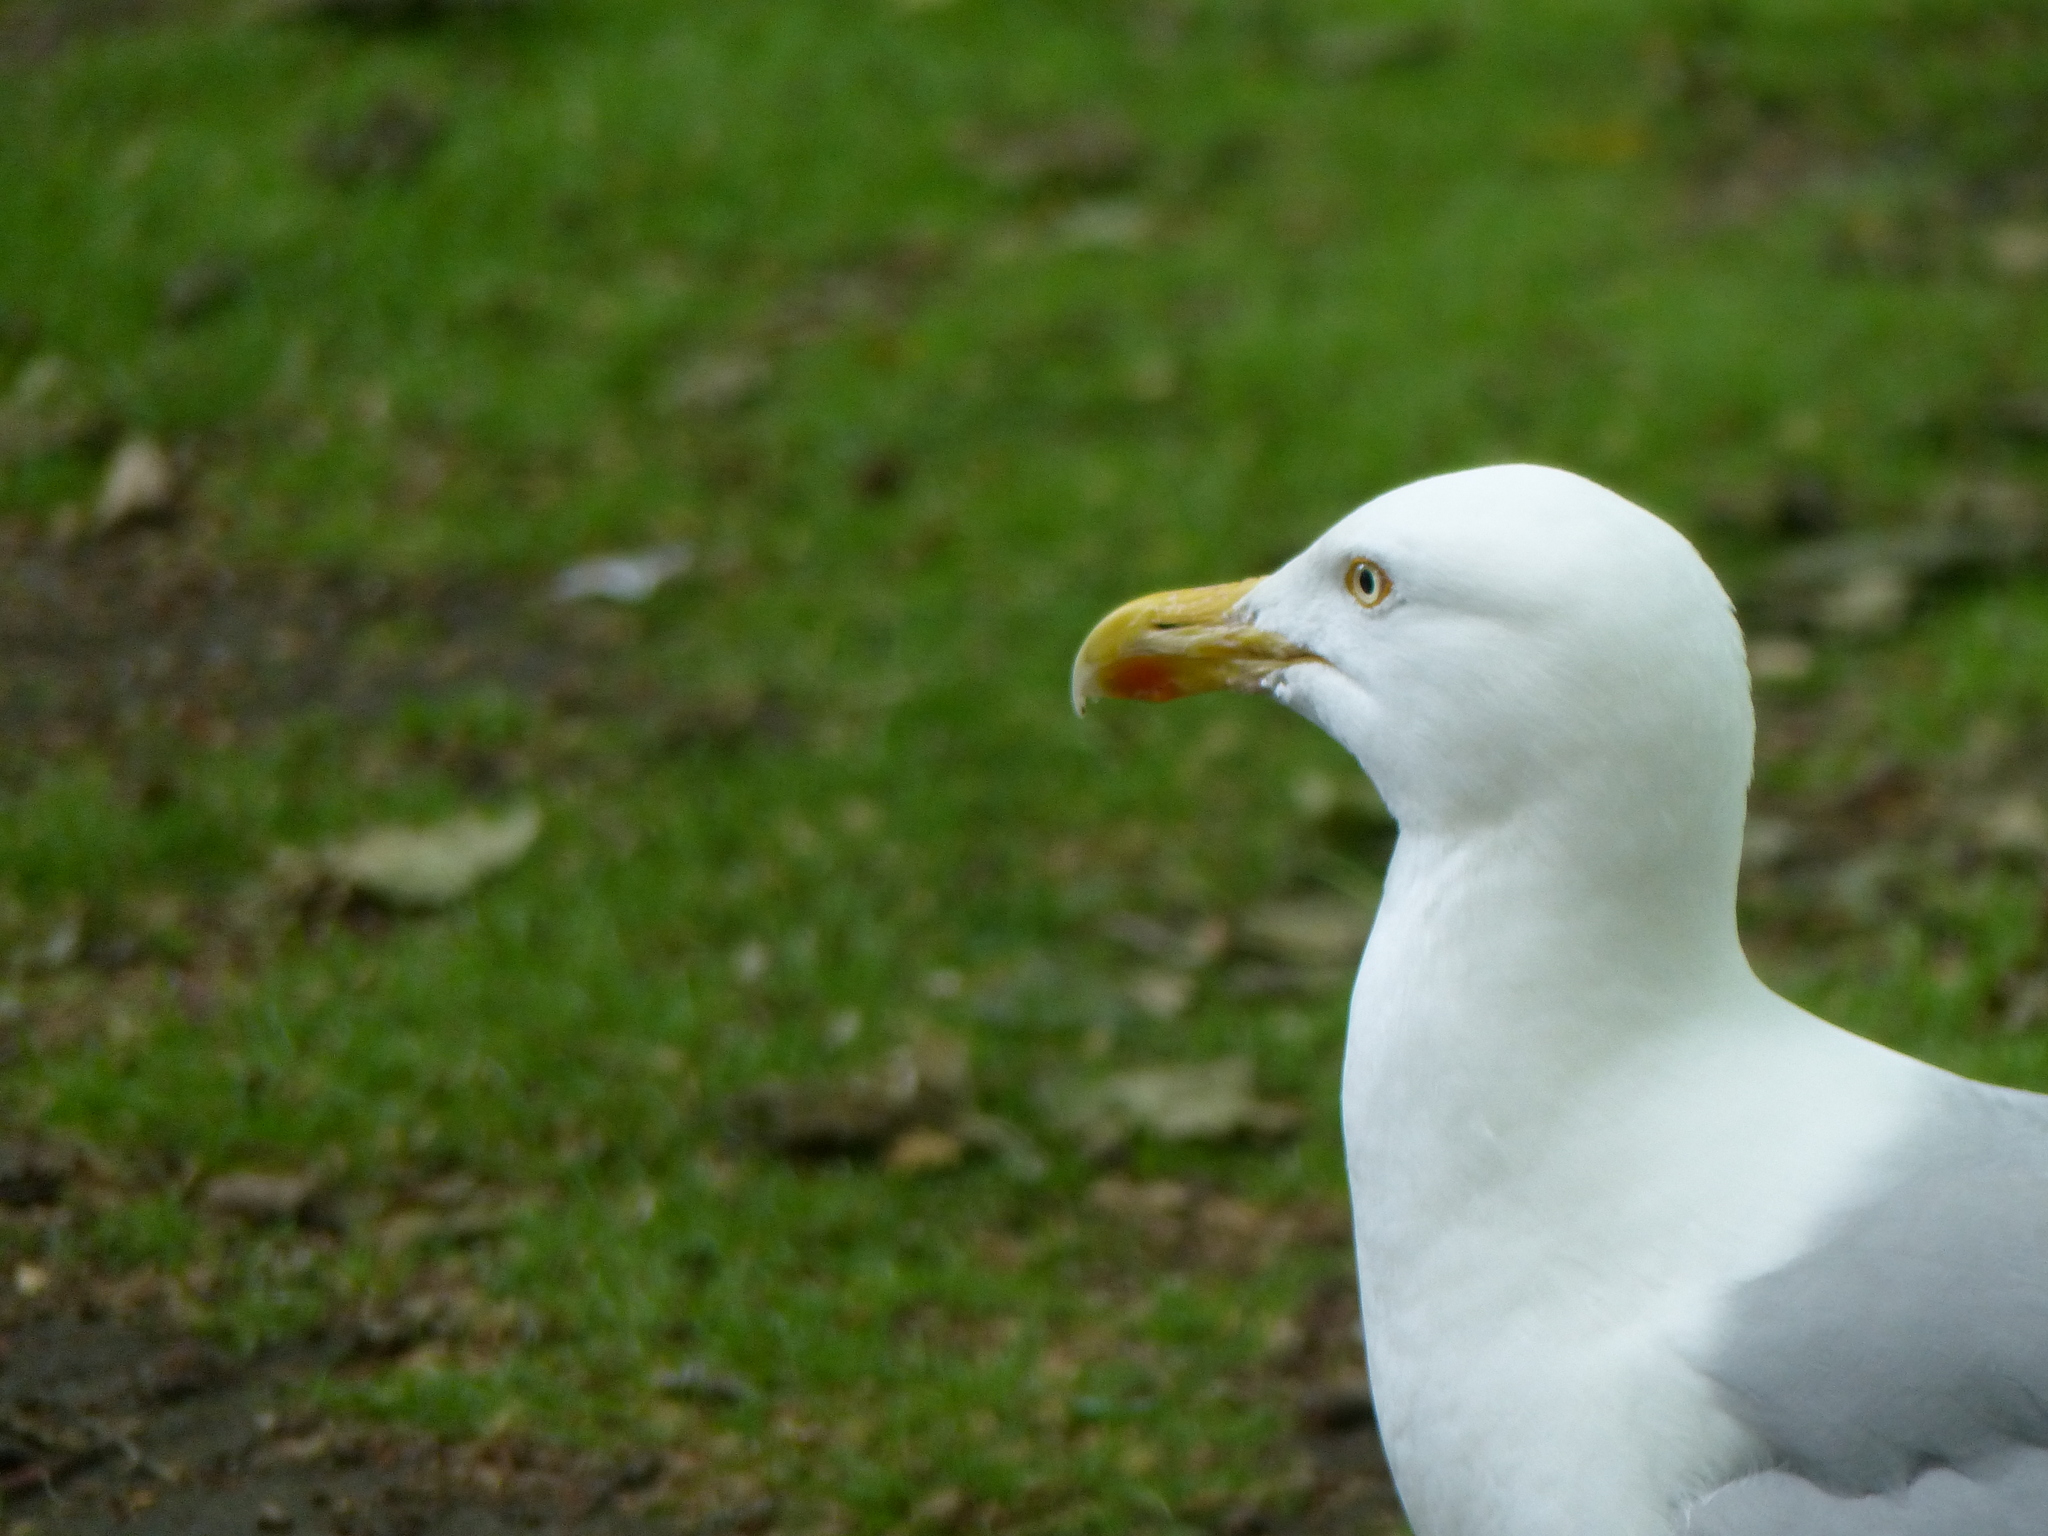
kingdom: Animalia
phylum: Chordata
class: Aves
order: Charadriiformes
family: Laridae
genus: Larus
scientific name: Larus argentatus
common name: Herring gull
